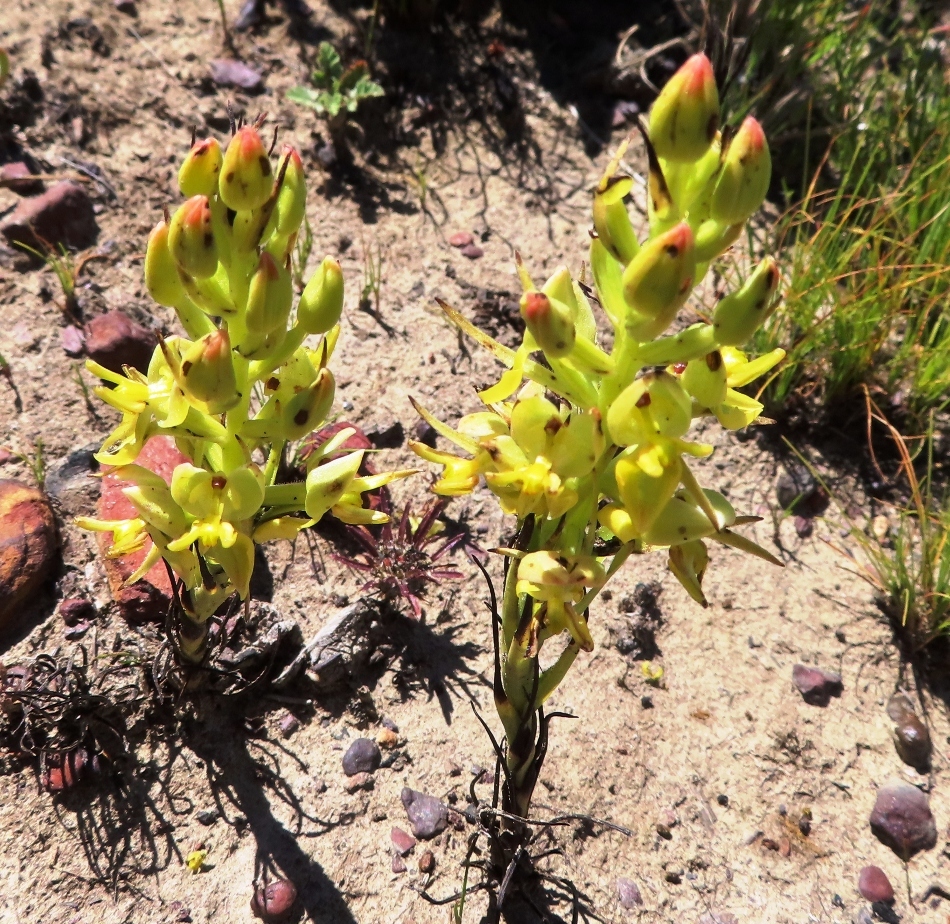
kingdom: Plantae
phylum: Tracheophyta
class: Liliopsida
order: Asparagales
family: Orchidaceae
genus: Ceratandra
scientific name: Ceratandra atrata
